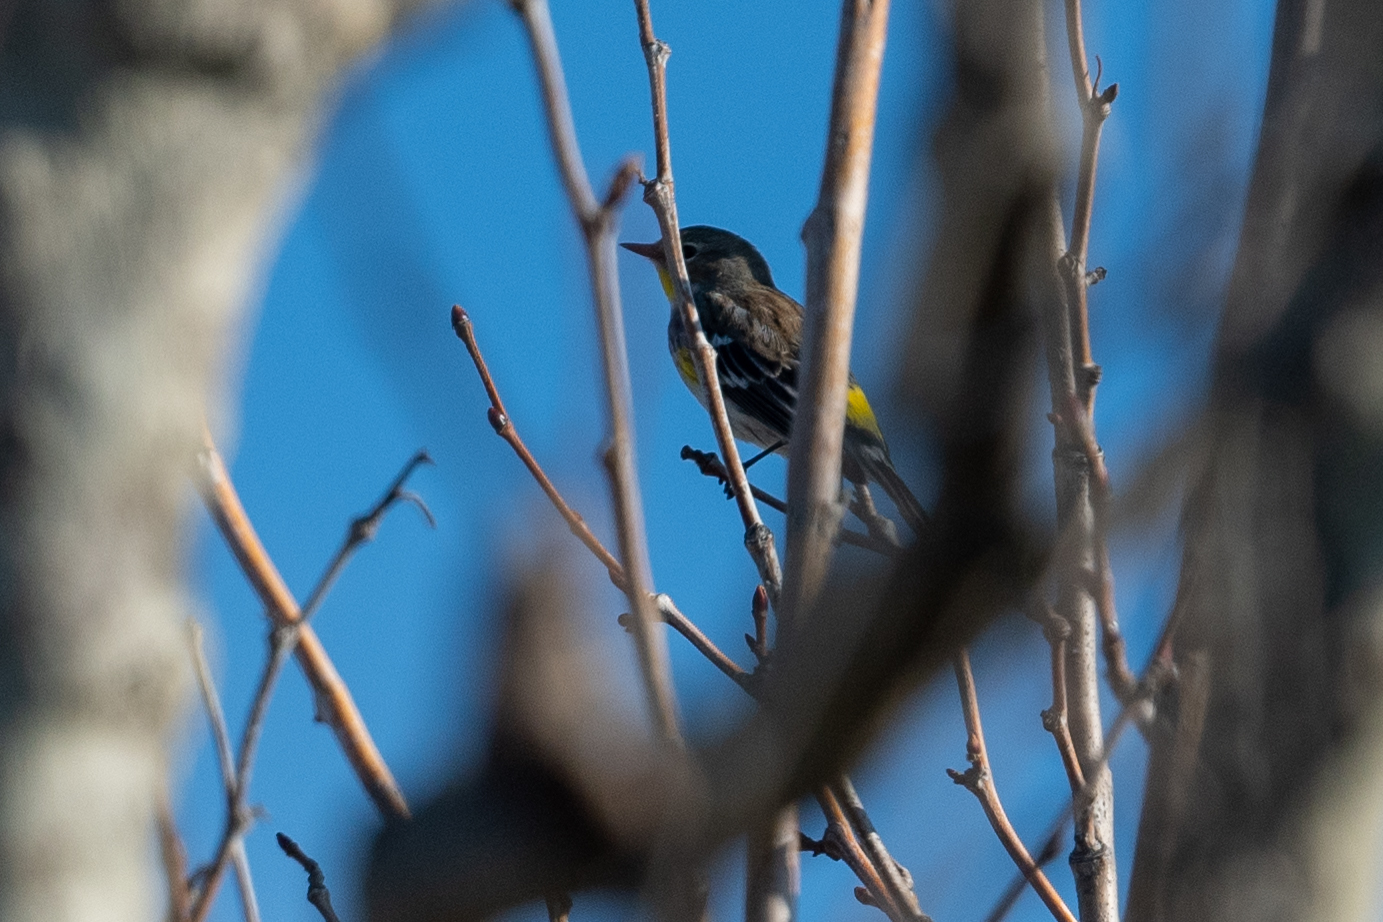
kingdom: Animalia
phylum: Chordata
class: Aves
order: Passeriformes
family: Parulidae
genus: Setophaga
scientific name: Setophaga coronata
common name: Myrtle warbler
